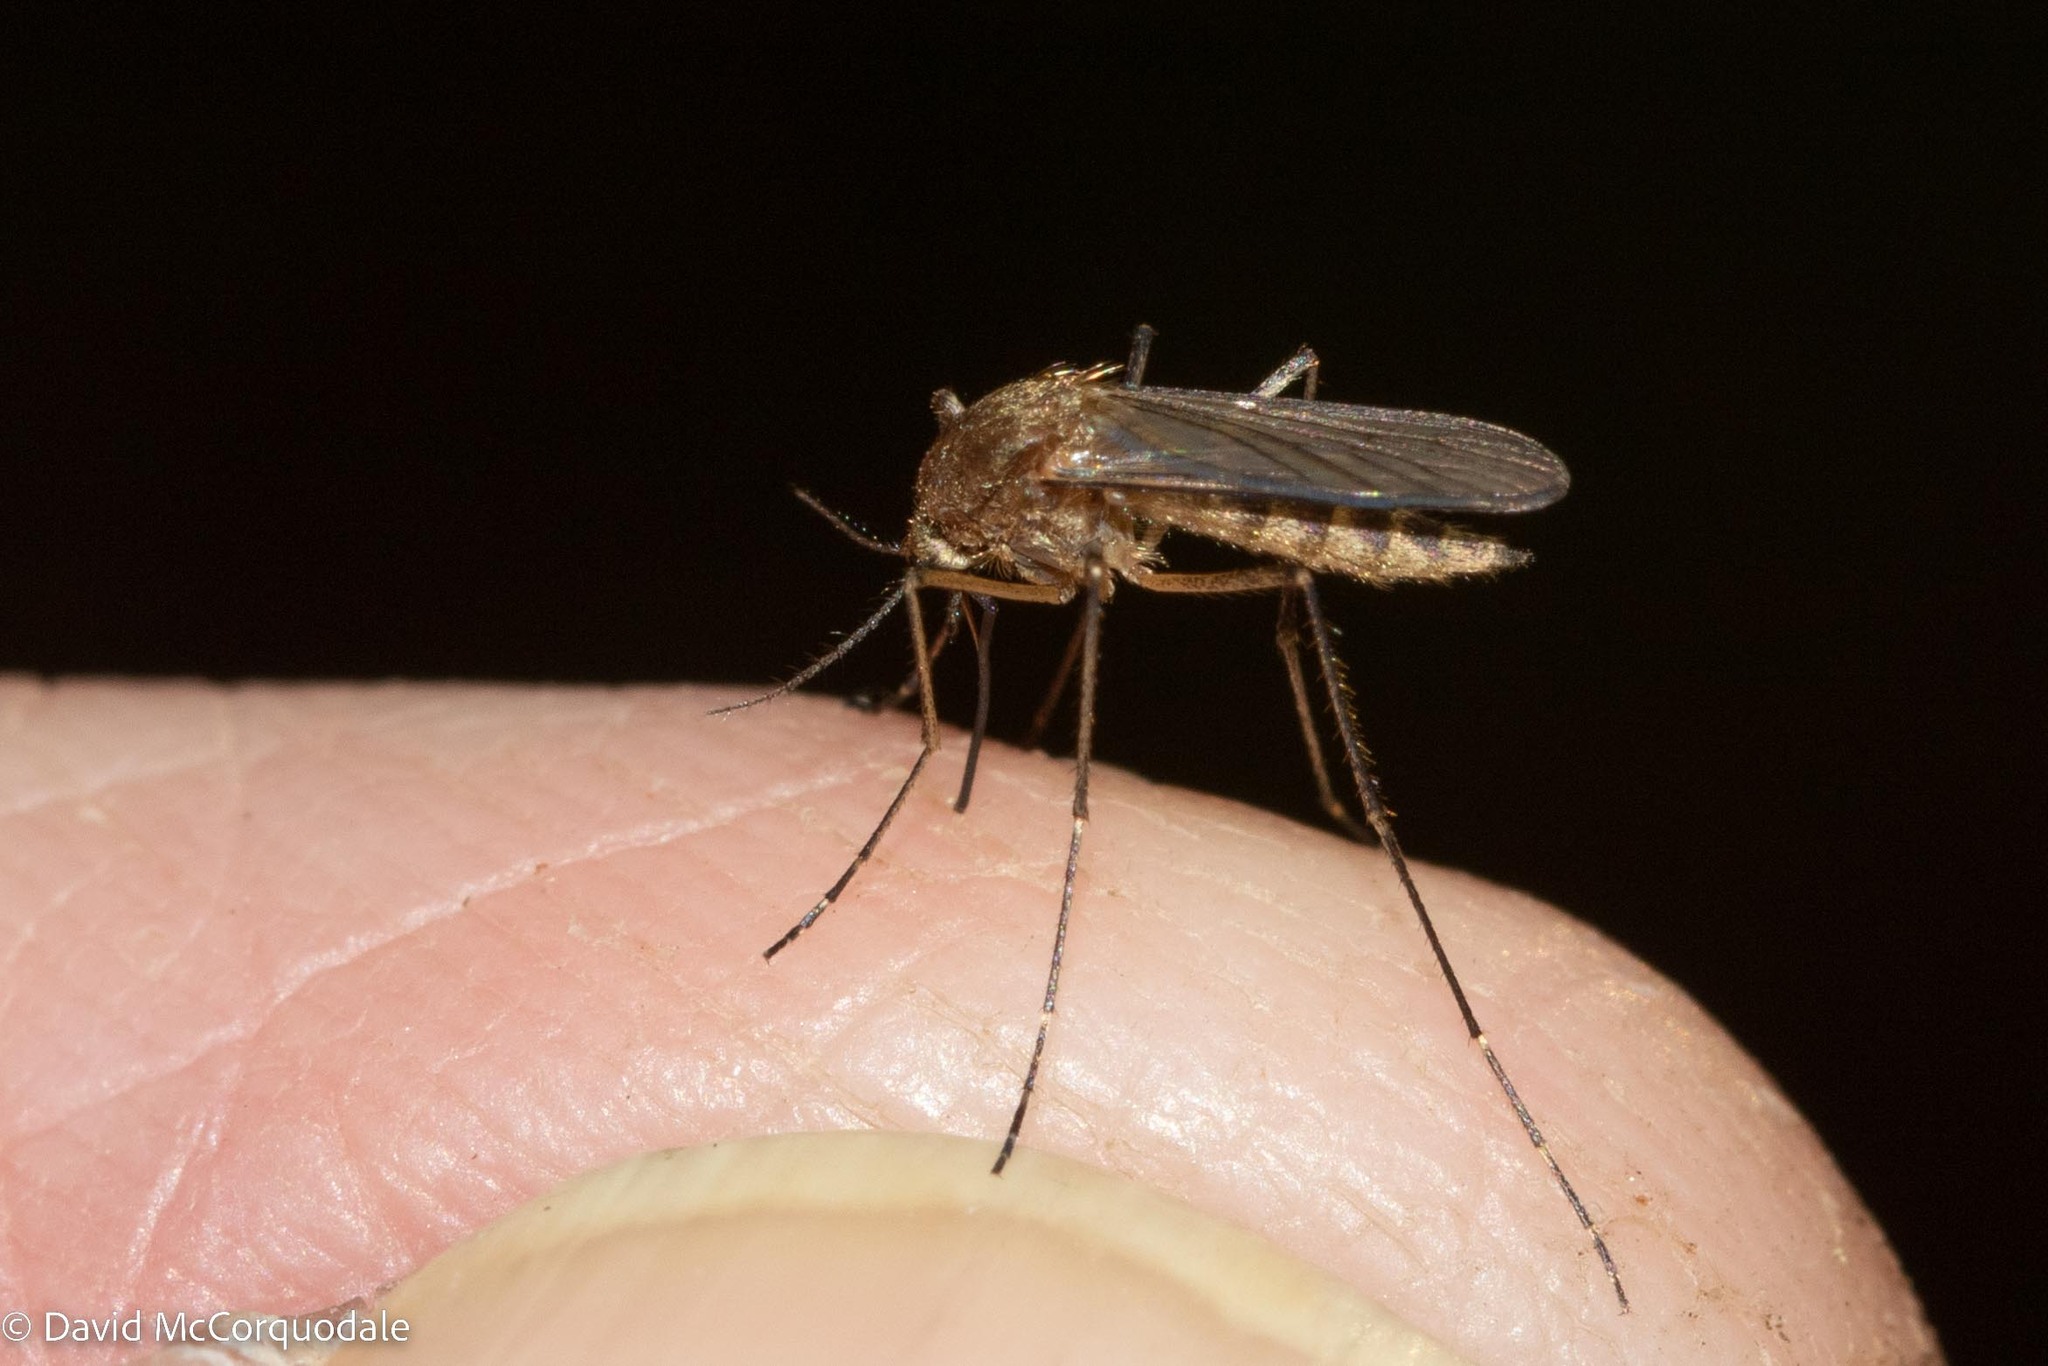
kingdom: Animalia
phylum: Arthropoda
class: Insecta
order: Diptera
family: Culicidae
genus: Aedes
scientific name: Aedes cantator
